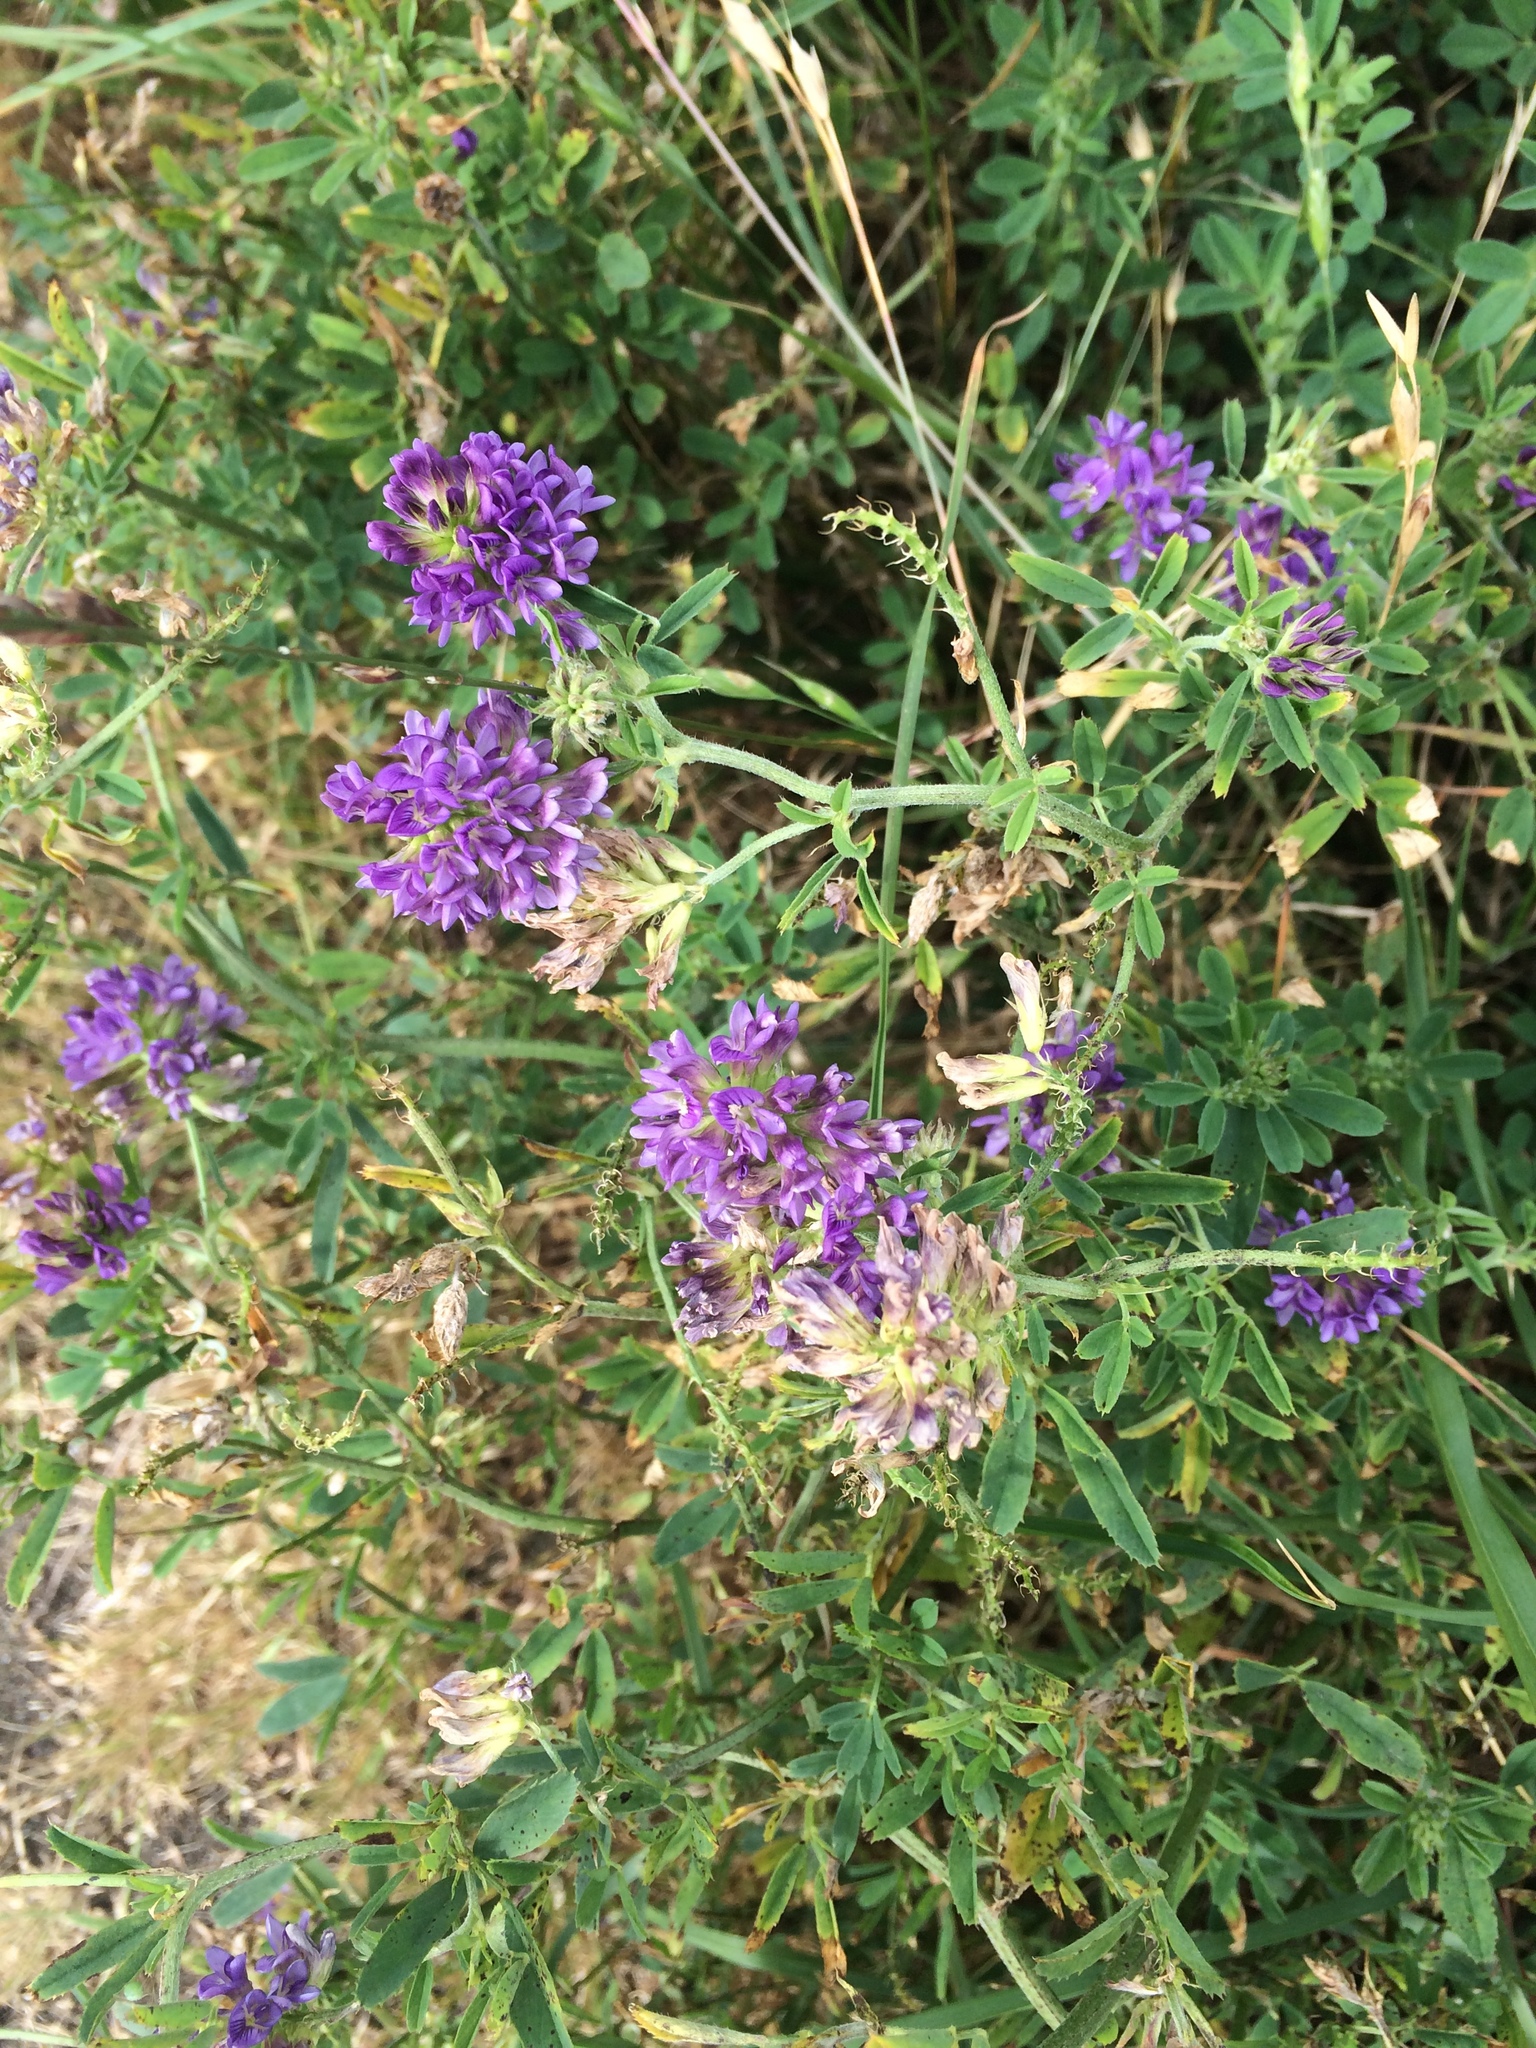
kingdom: Plantae
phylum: Tracheophyta
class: Magnoliopsida
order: Fabales
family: Fabaceae
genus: Medicago
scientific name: Medicago sativa
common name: Alfalfa
